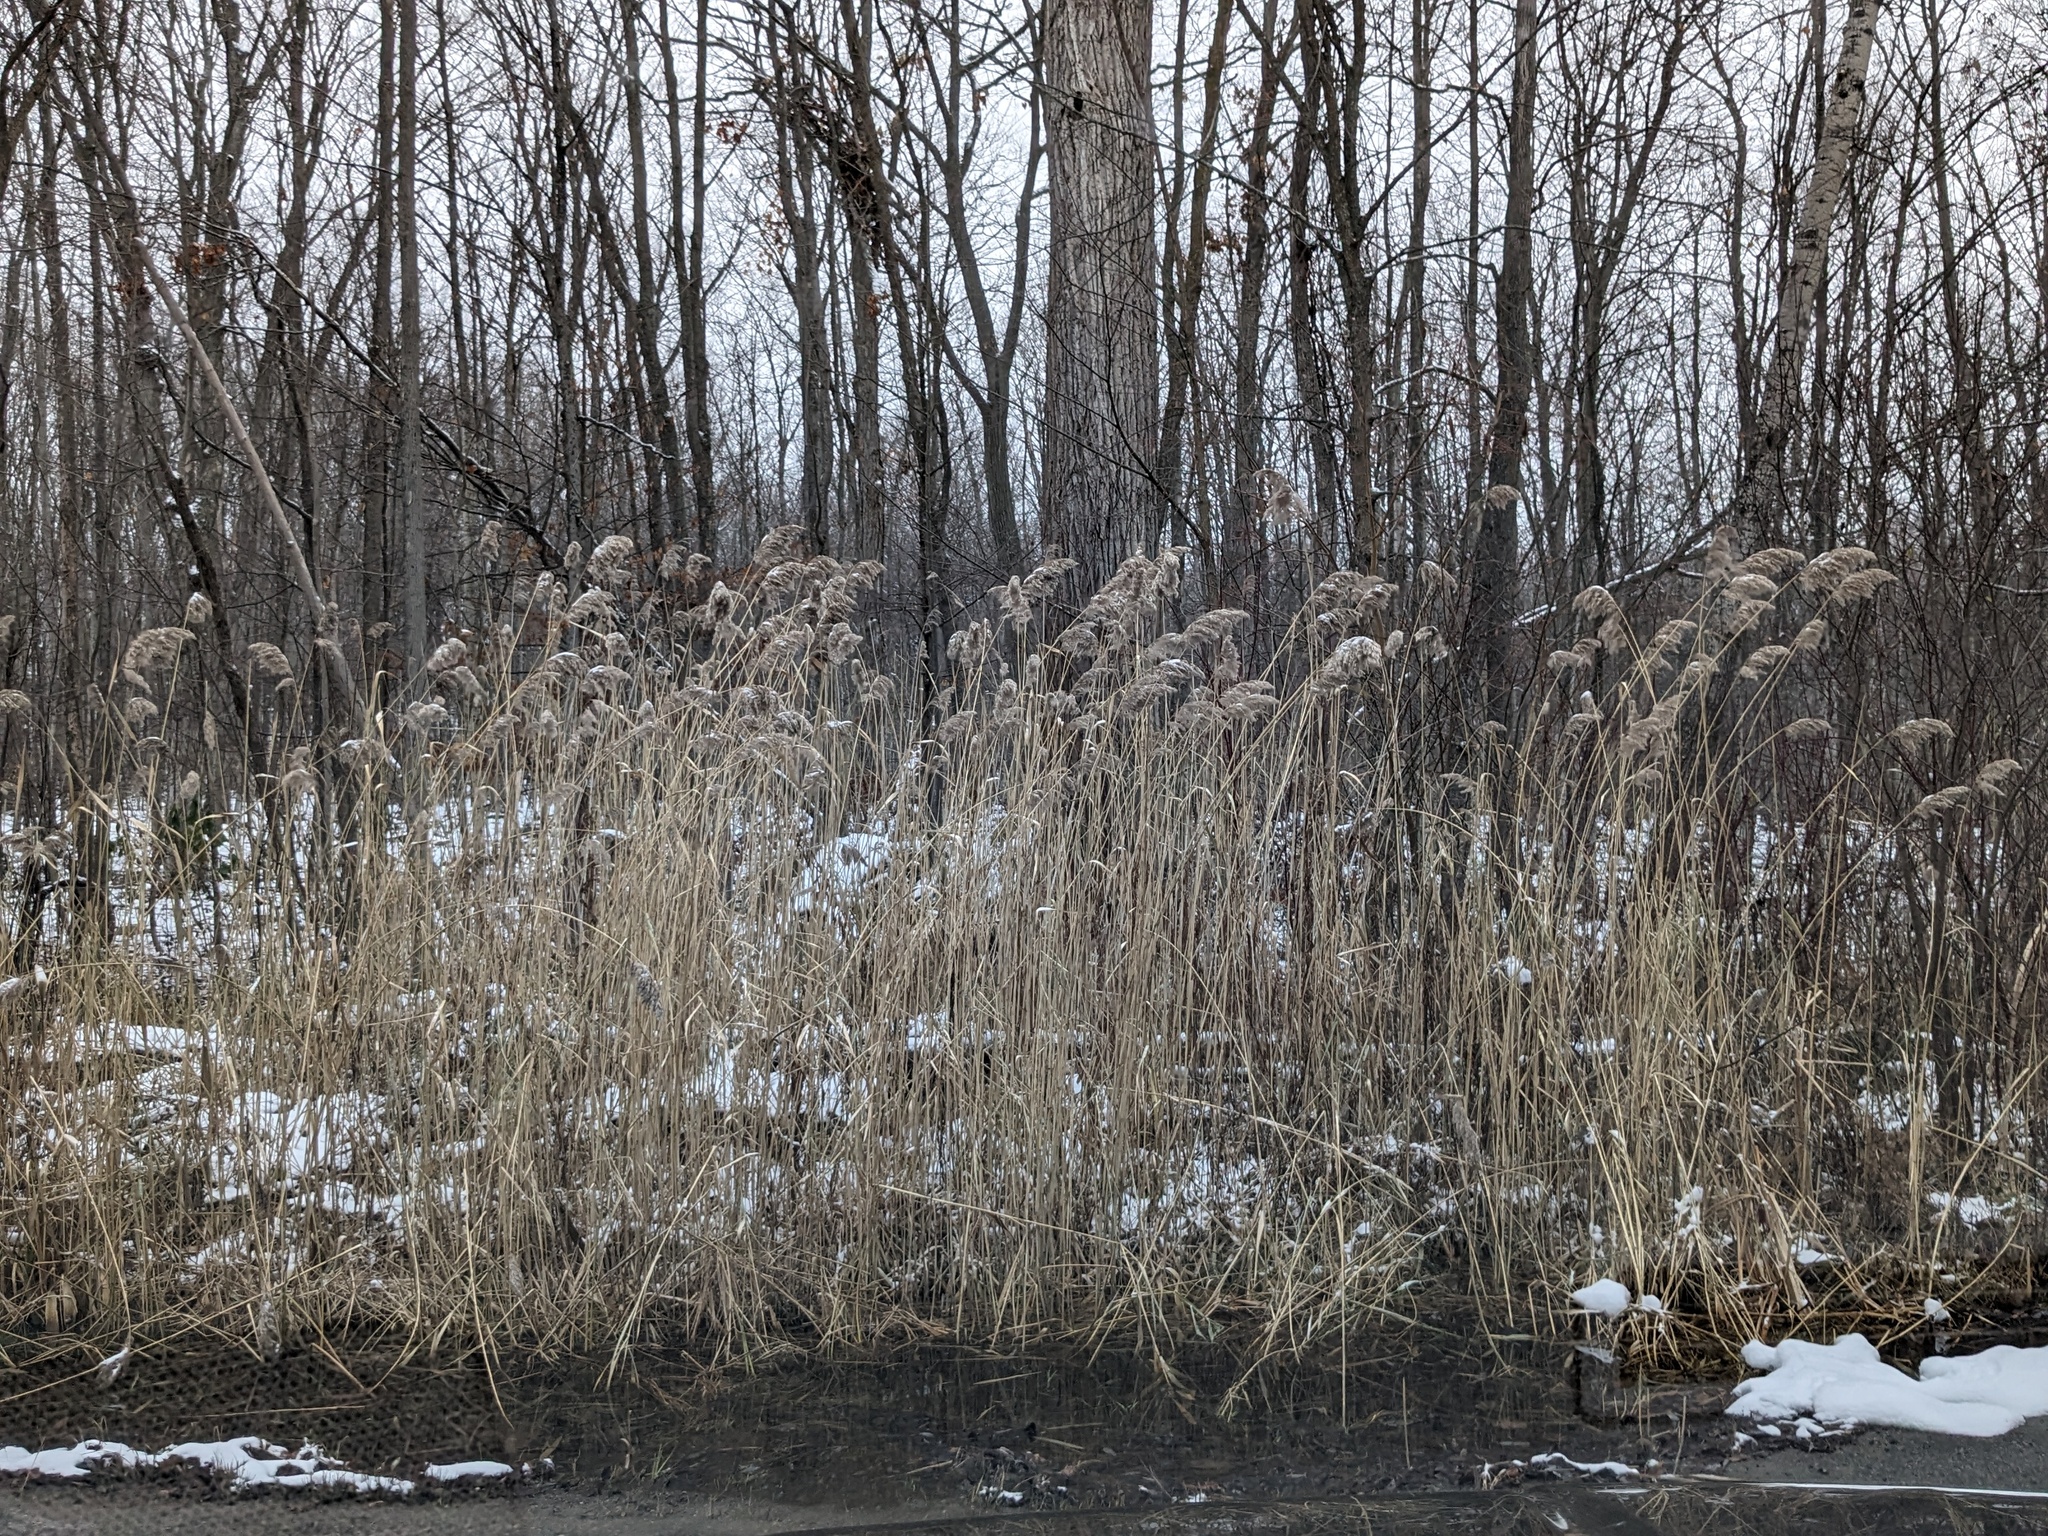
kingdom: Plantae
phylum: Tracheophyta
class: Liliopsida
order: Poales
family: Poaceae
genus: Phragmites
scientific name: Phragmites australis
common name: Common reed
